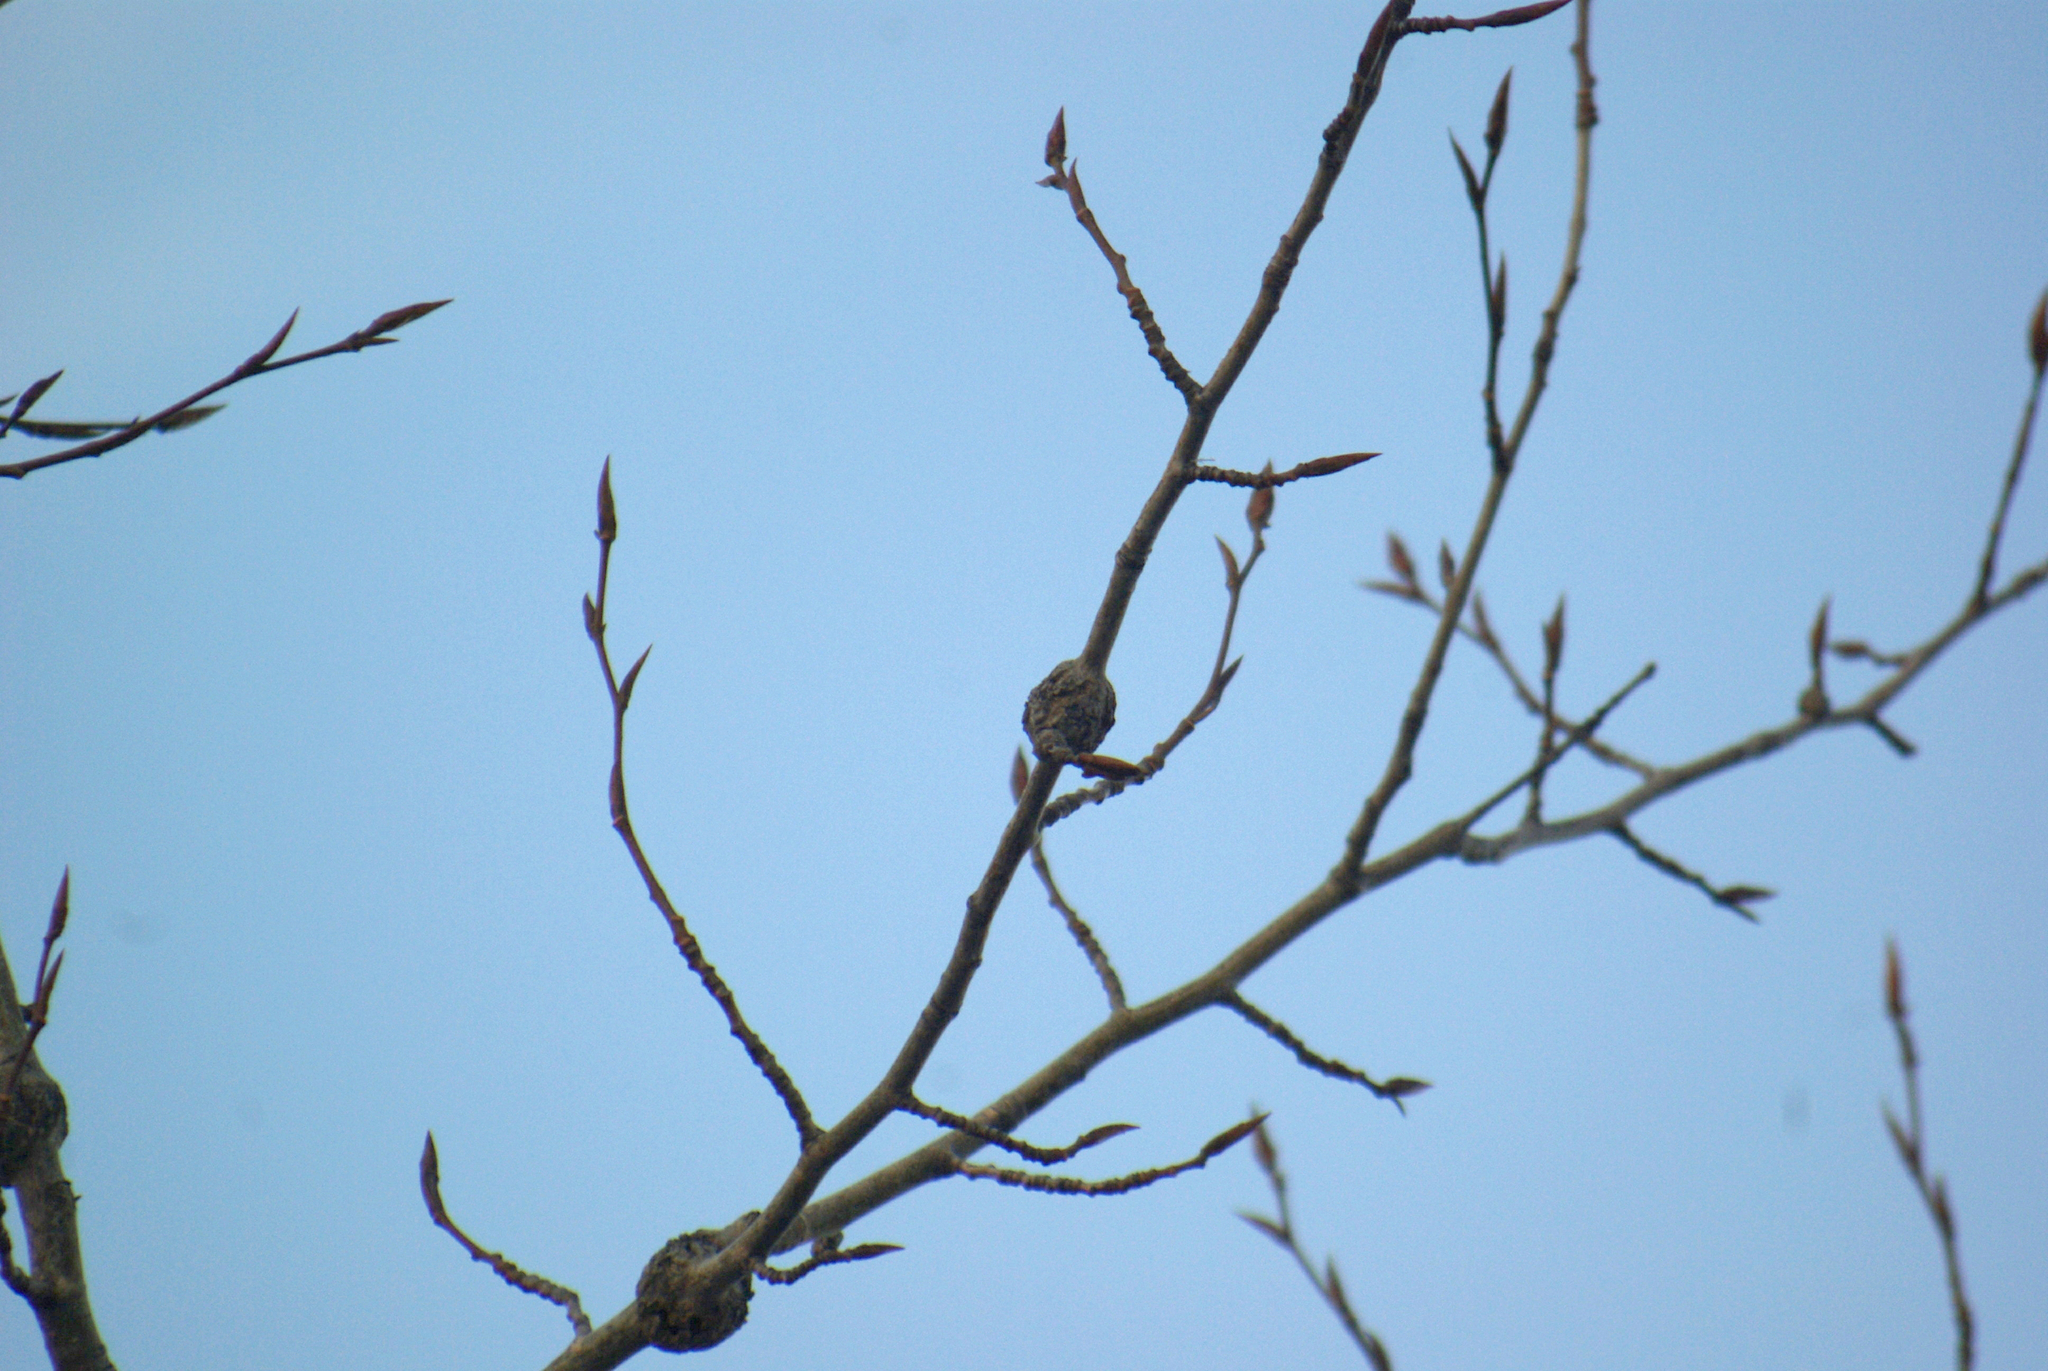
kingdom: Fungi
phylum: Ascomycota
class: Dothideomycetes
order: Botryosphaeriales
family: Botryosphaeriaceae
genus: Diplodia
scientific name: Diplodia tumefaciens
